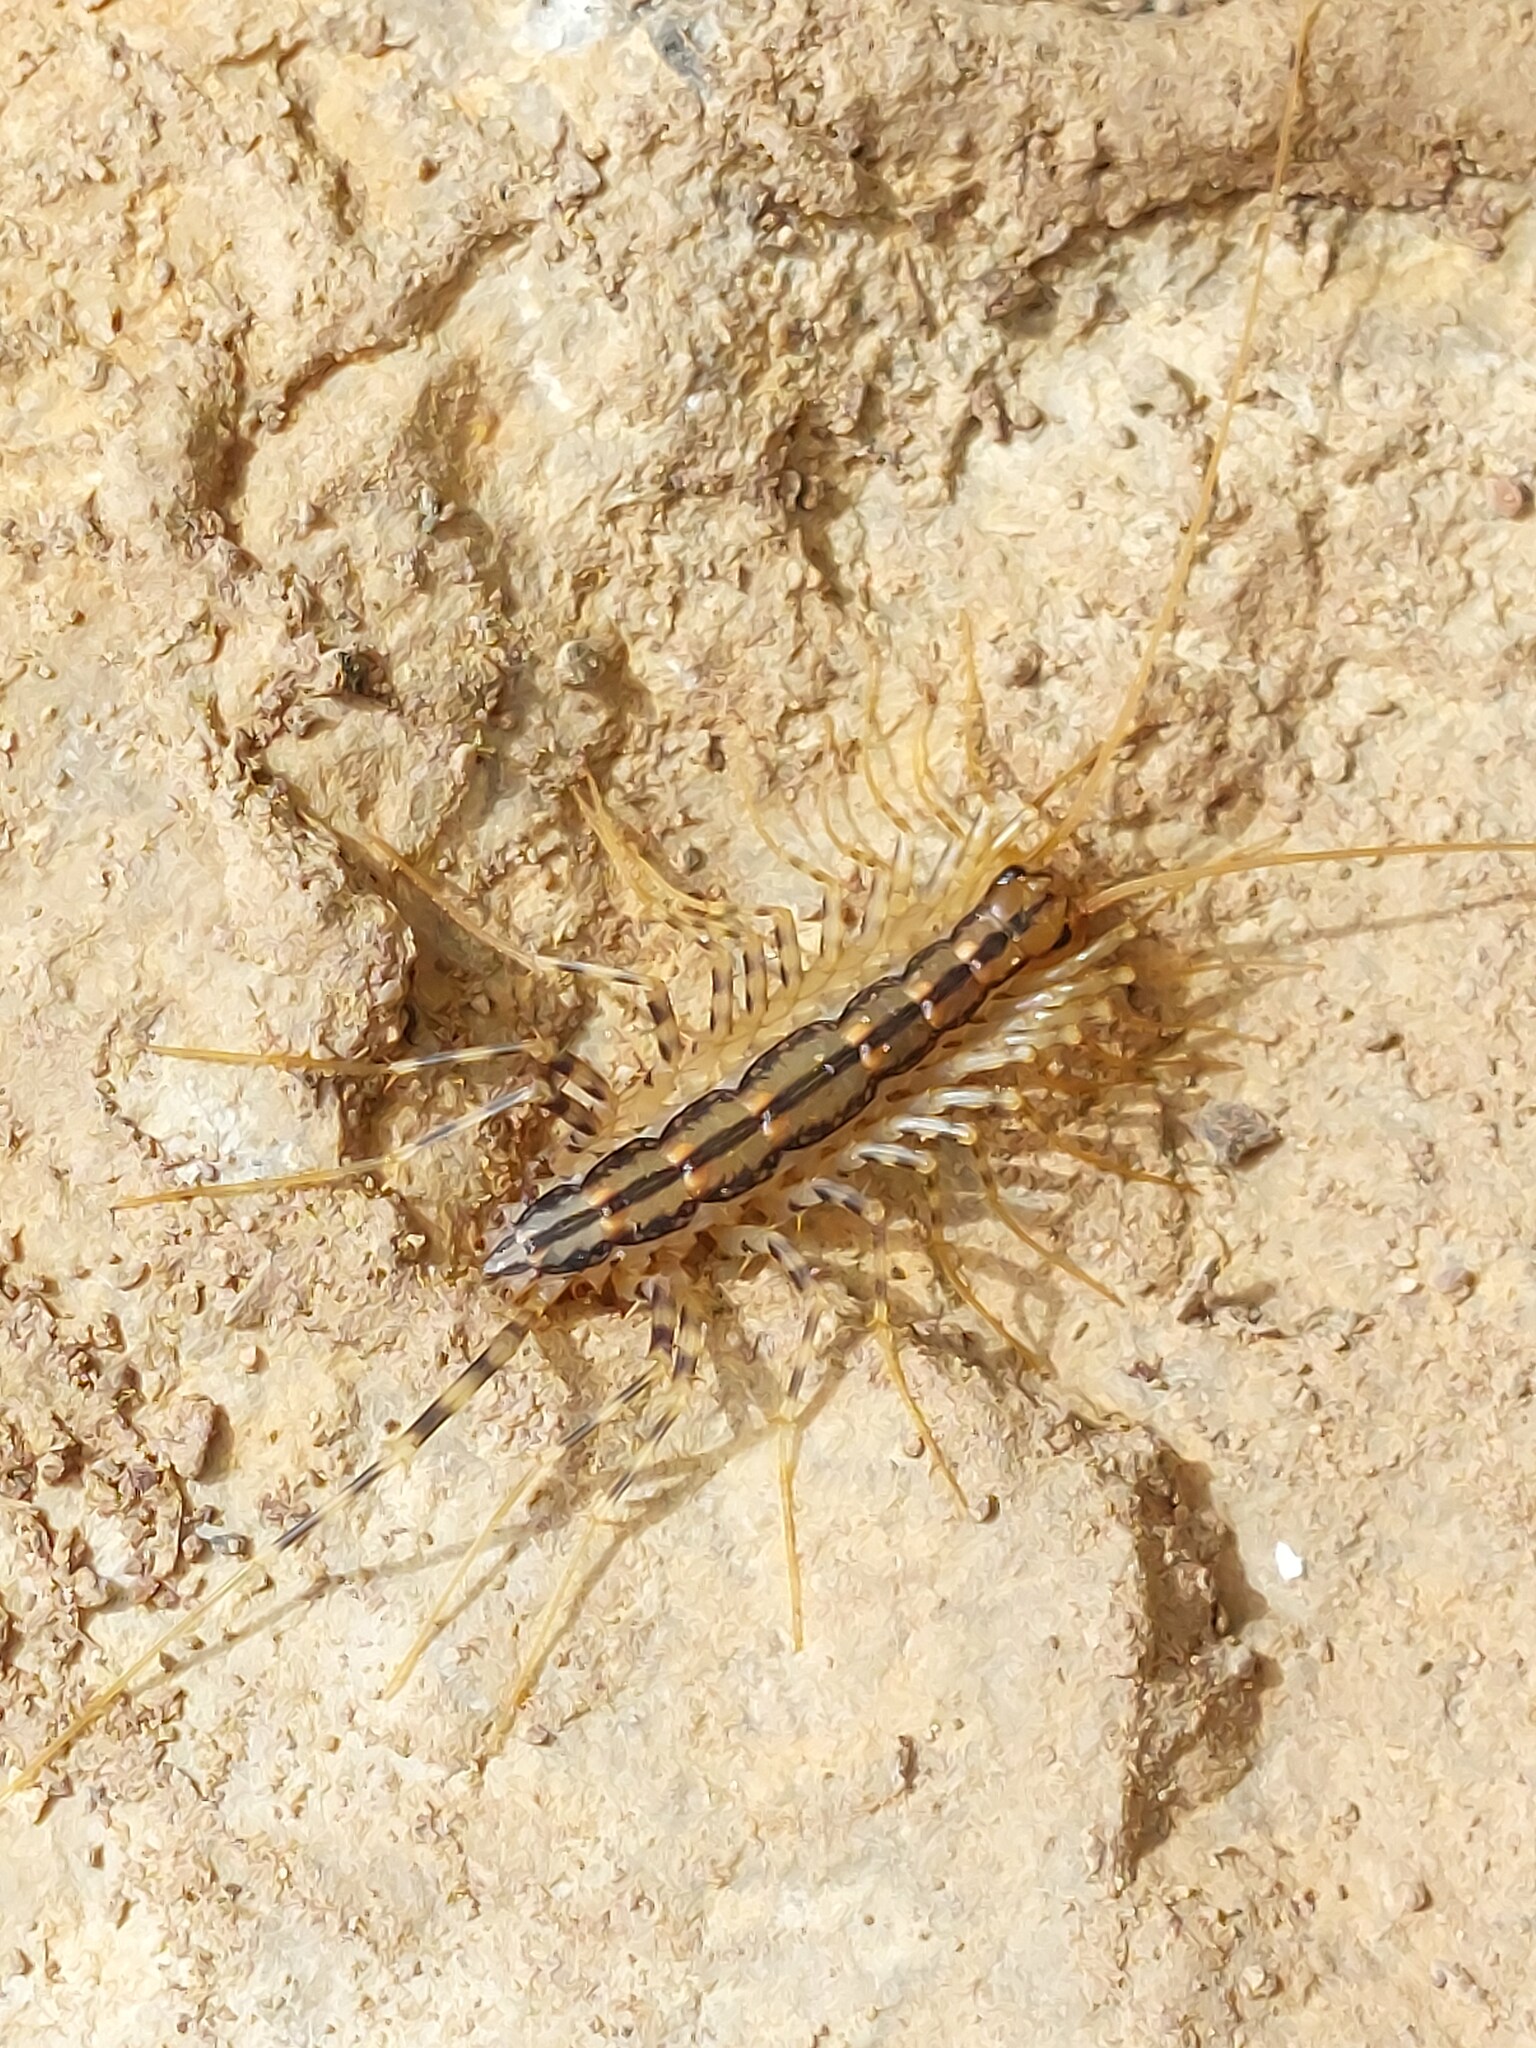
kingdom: Animalia
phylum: Arthropoda
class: Chilopoda
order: Scutigeromorpha
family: Scutigeridae
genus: Scutigera
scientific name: Scutigera coleoptrata
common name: House centipede
